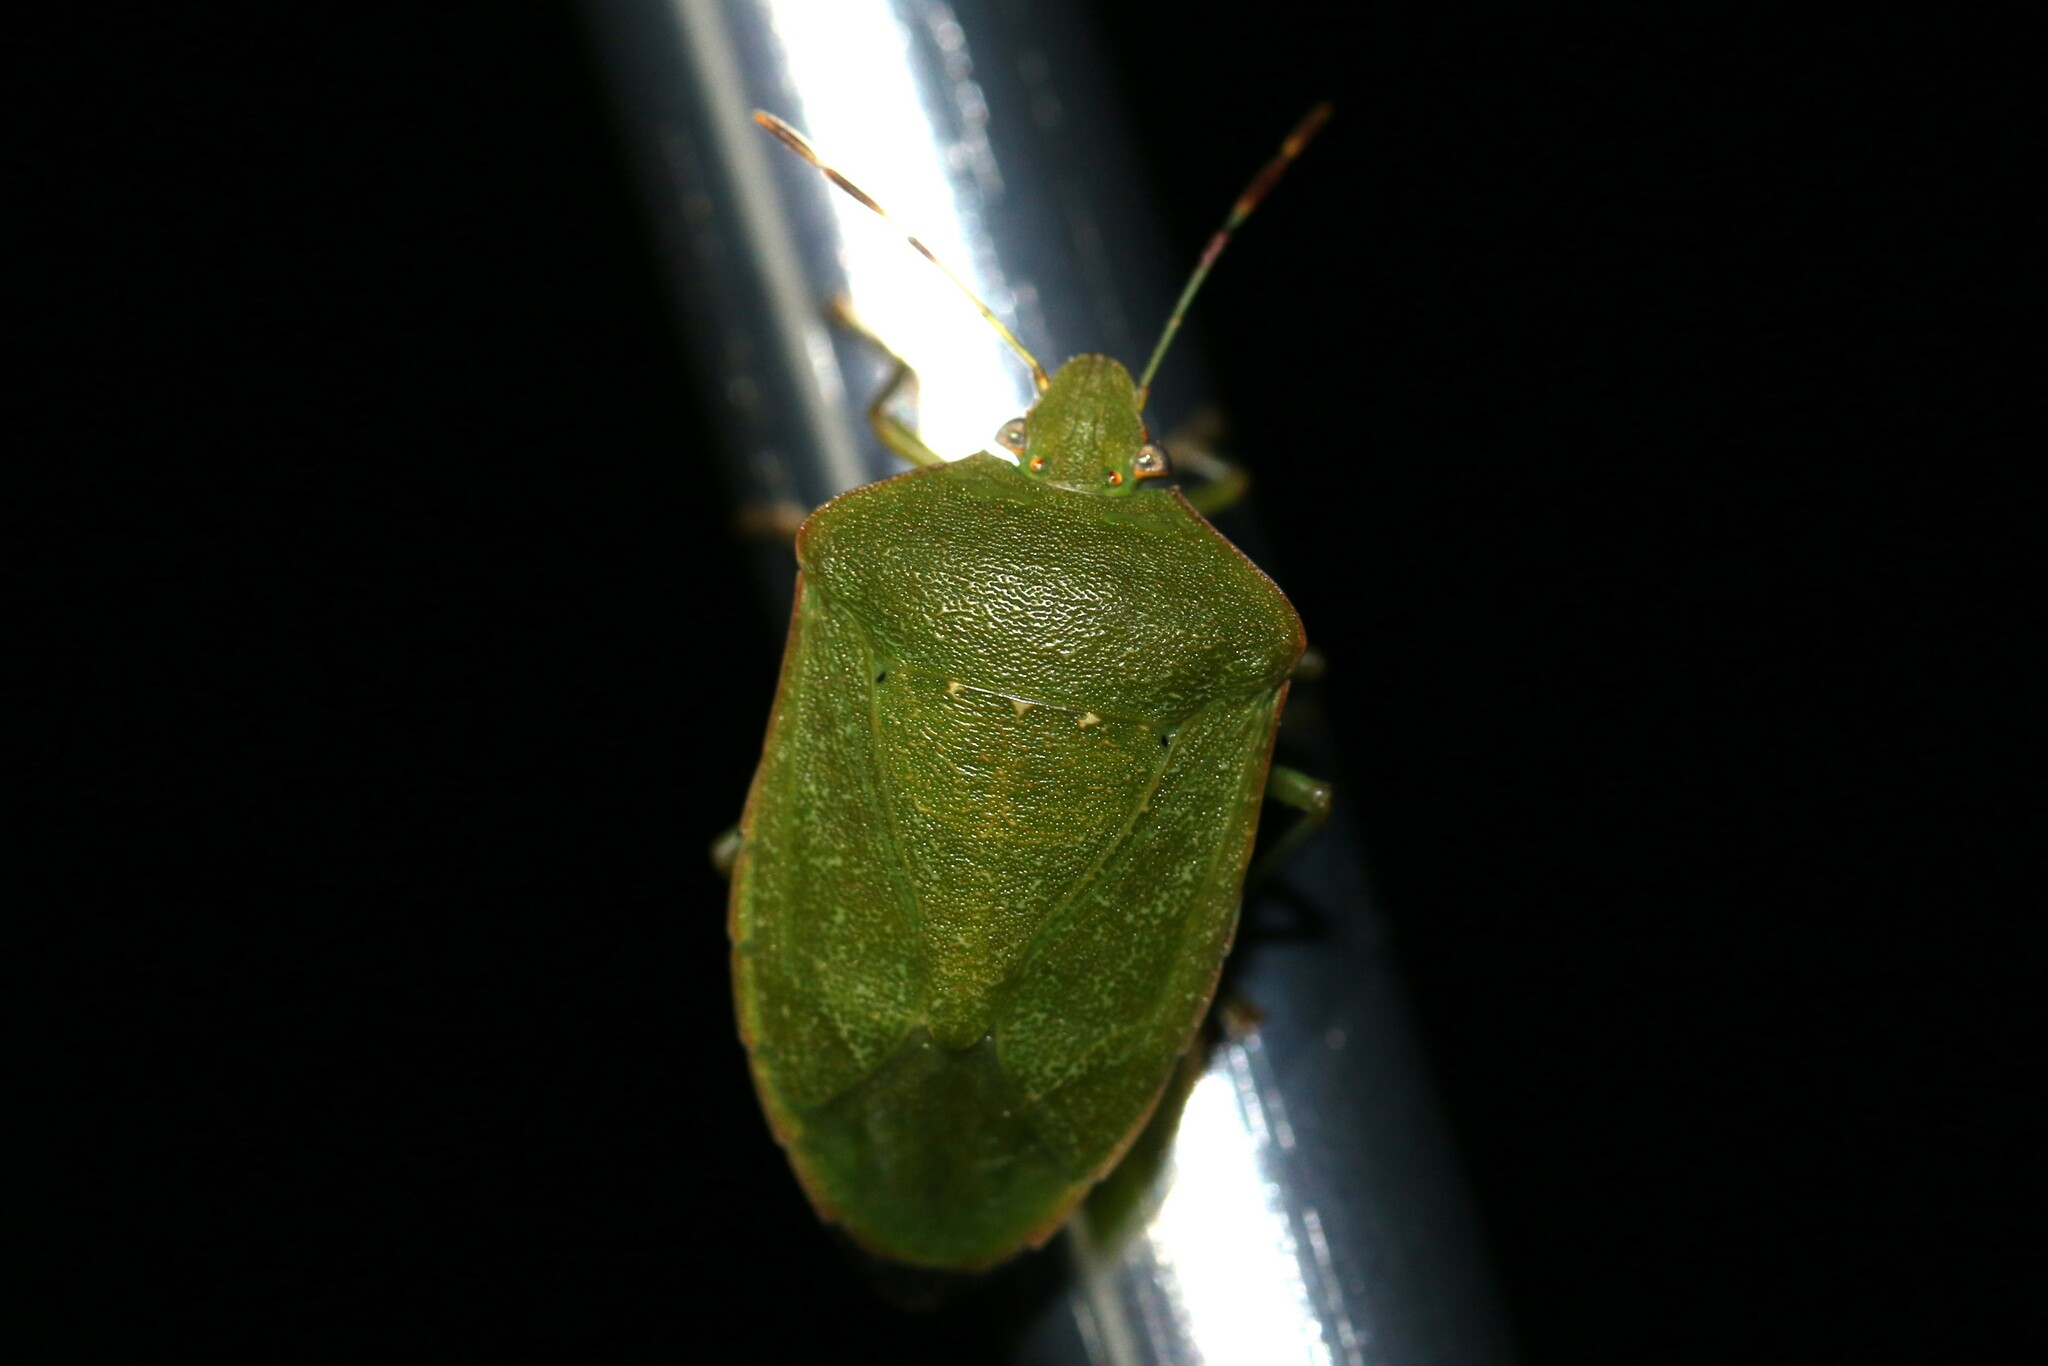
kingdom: Animalia
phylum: Arthropoda
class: Insecta
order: Hemiptera
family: Pentatomidae
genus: Nezara
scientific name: Nezara viridula
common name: Southern green stink bug
